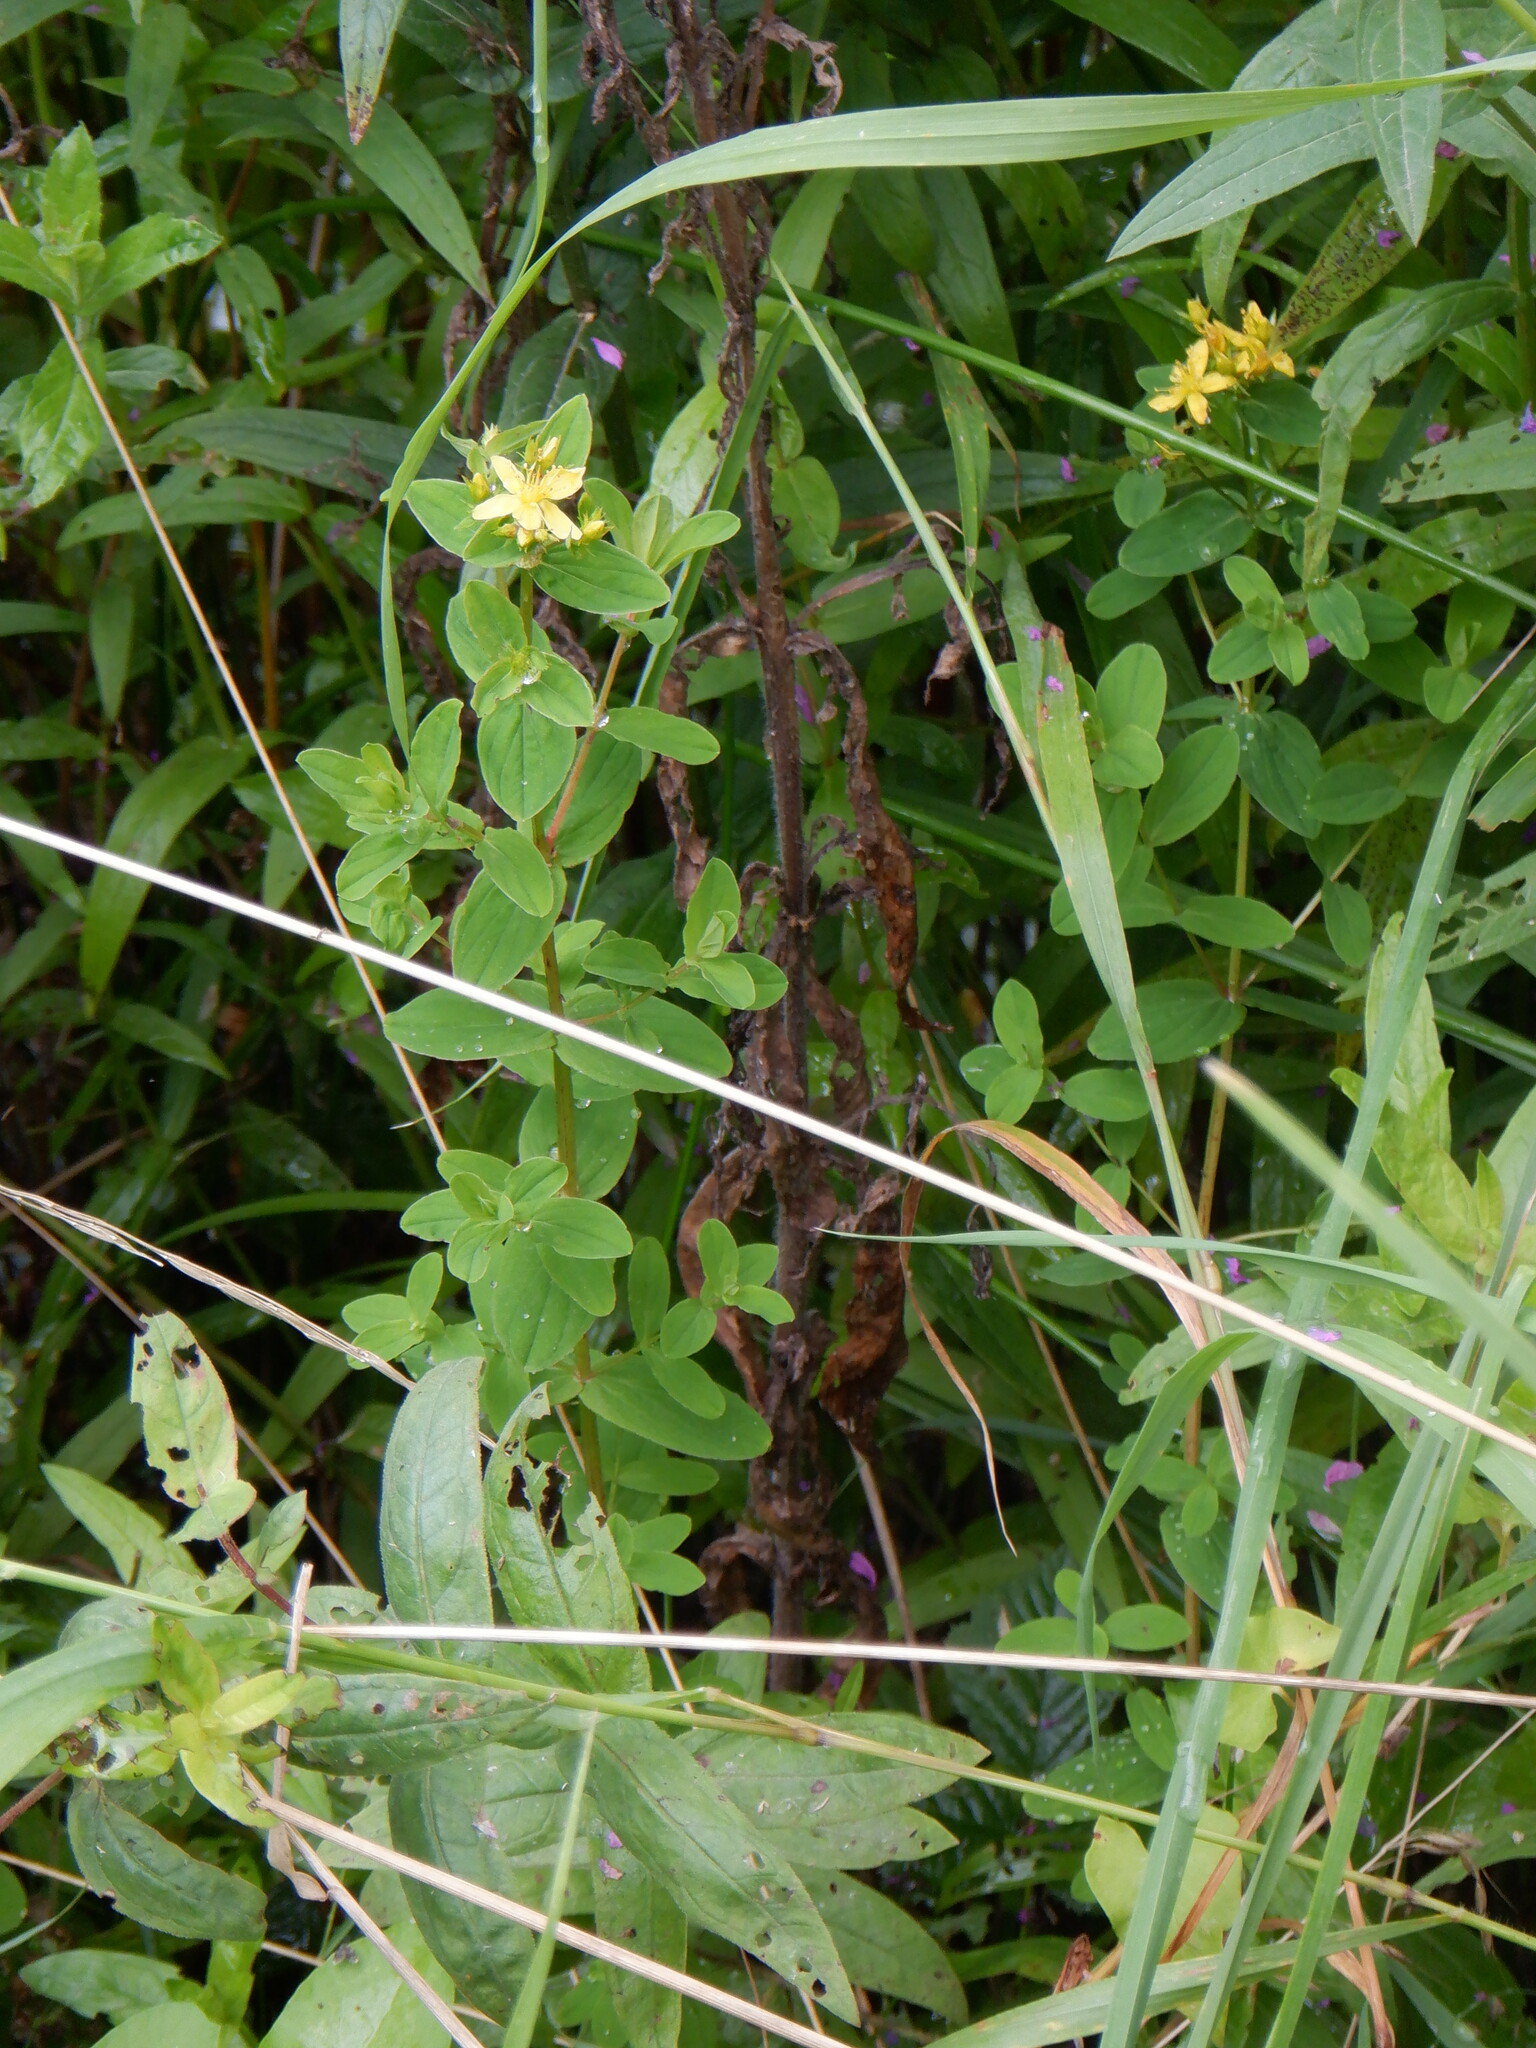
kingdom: Plantae
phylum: Tracheophyta
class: Magnoliopsida
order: Malpighiales
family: Hypericaceae
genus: Hypericum
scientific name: Hypericum tetrapterum
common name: Square-stalked st. john's-wort
